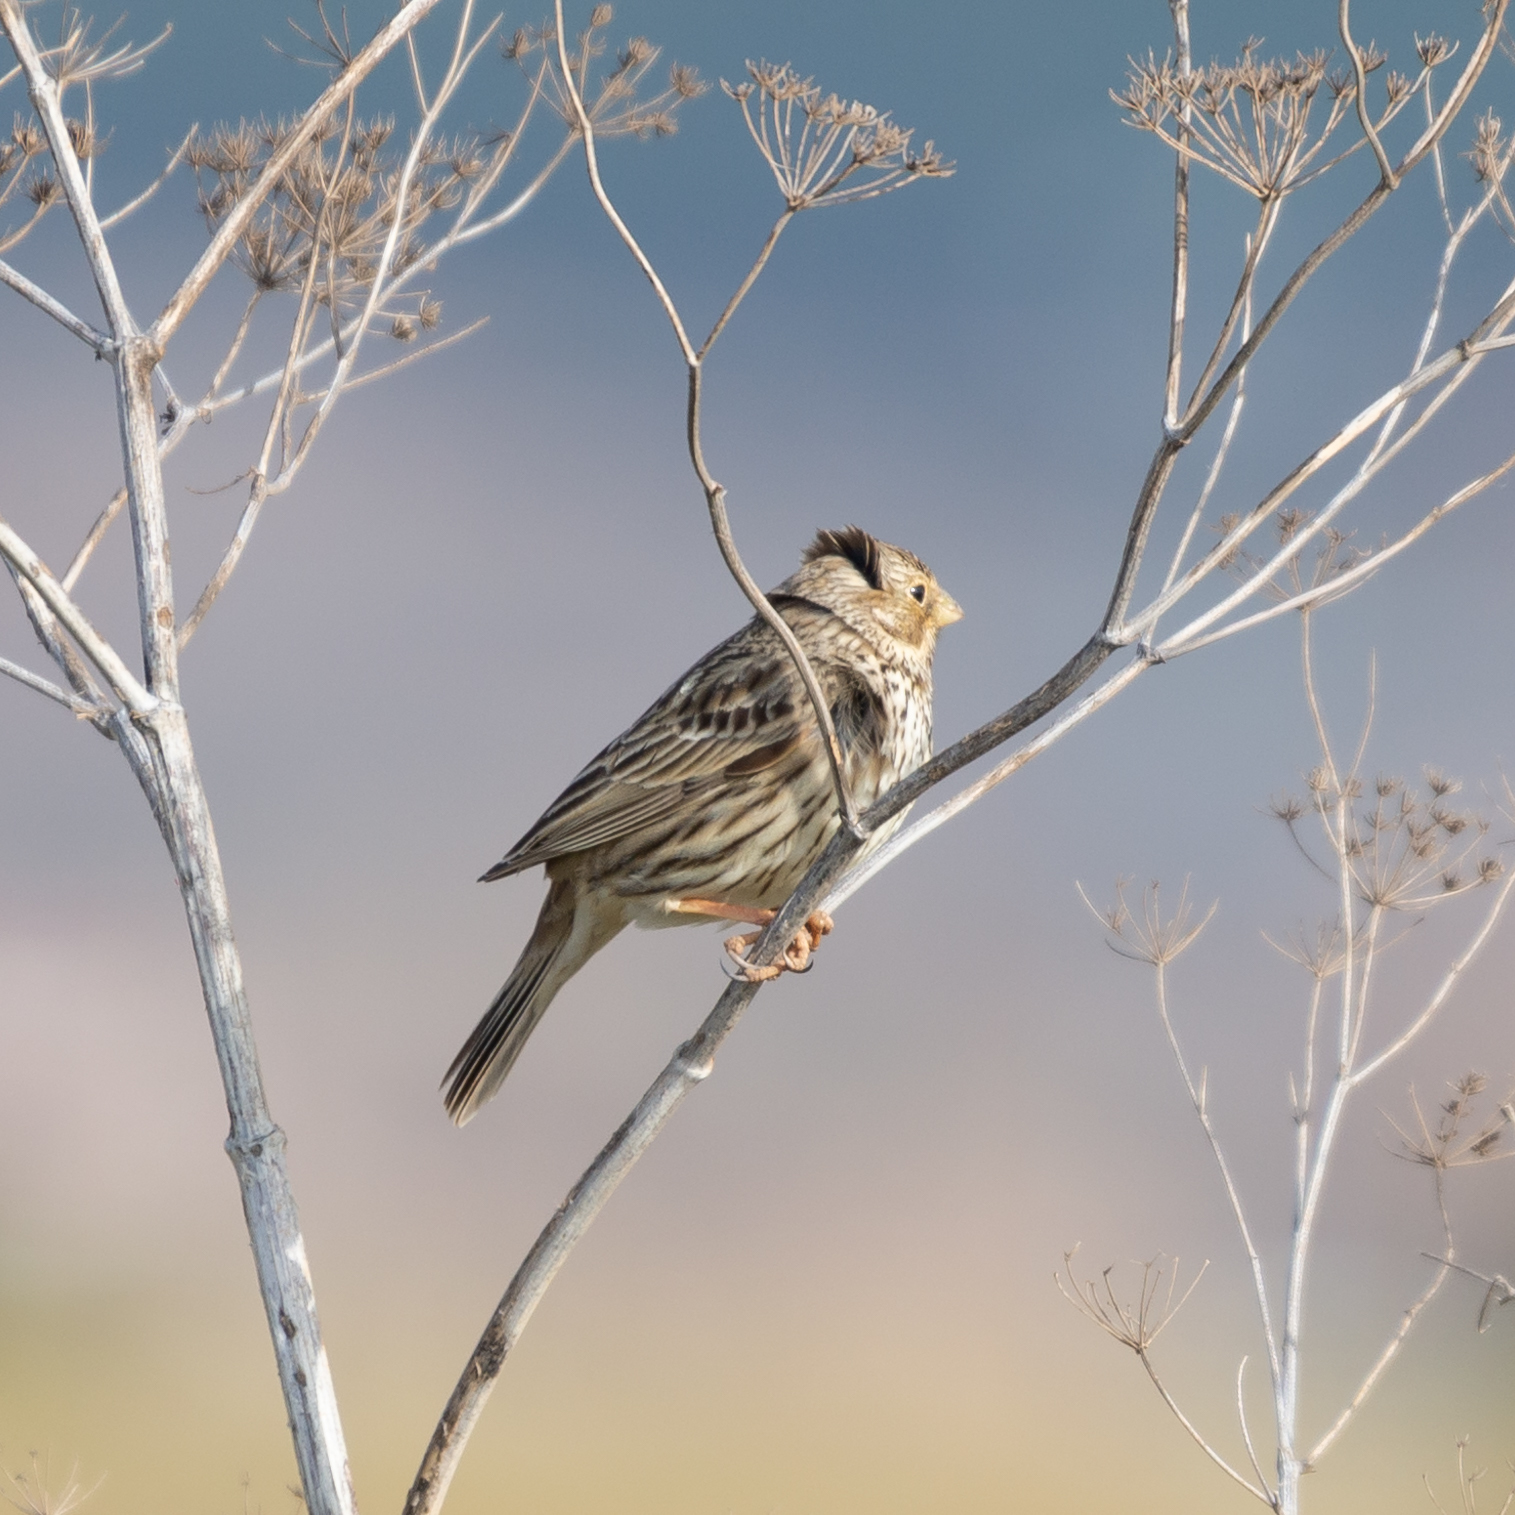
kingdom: Animalia
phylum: Chordata
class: Aves
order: Passeriformes
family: Emberizidae
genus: Emberiza
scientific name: Emberiza calandra
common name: Corn bunting
